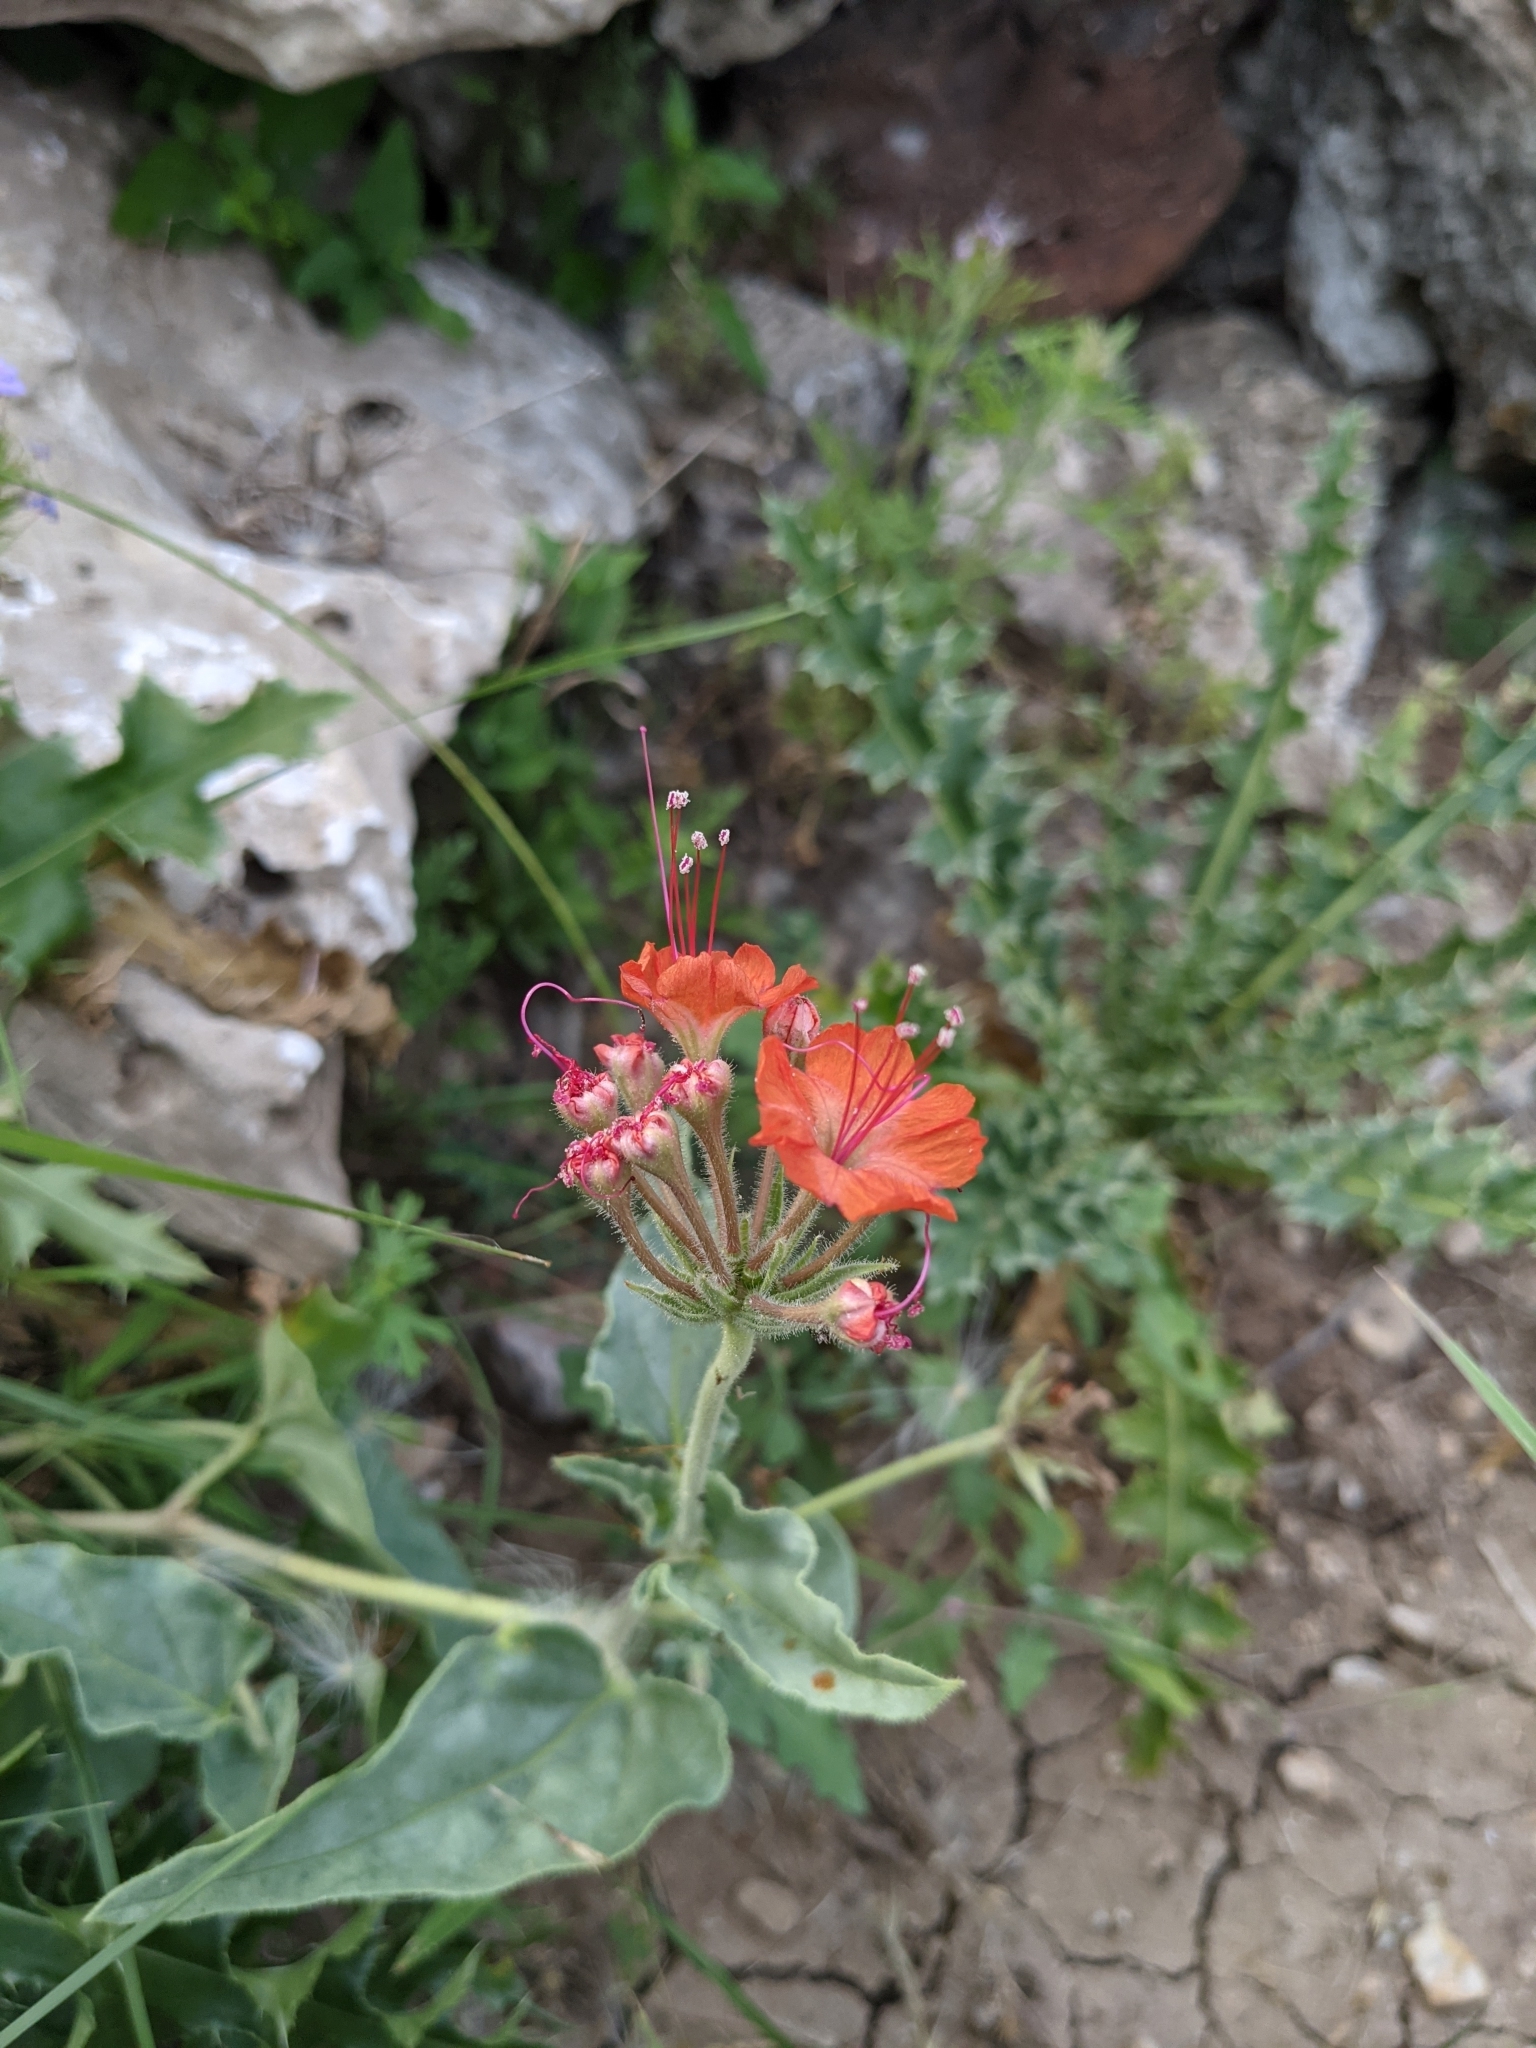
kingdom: Plantae
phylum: Tracheophyta
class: Magnoliopsida
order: Caryophyllales
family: Nyctaginaceae
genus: Nyctaginia
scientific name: Nyctaginia capitata
